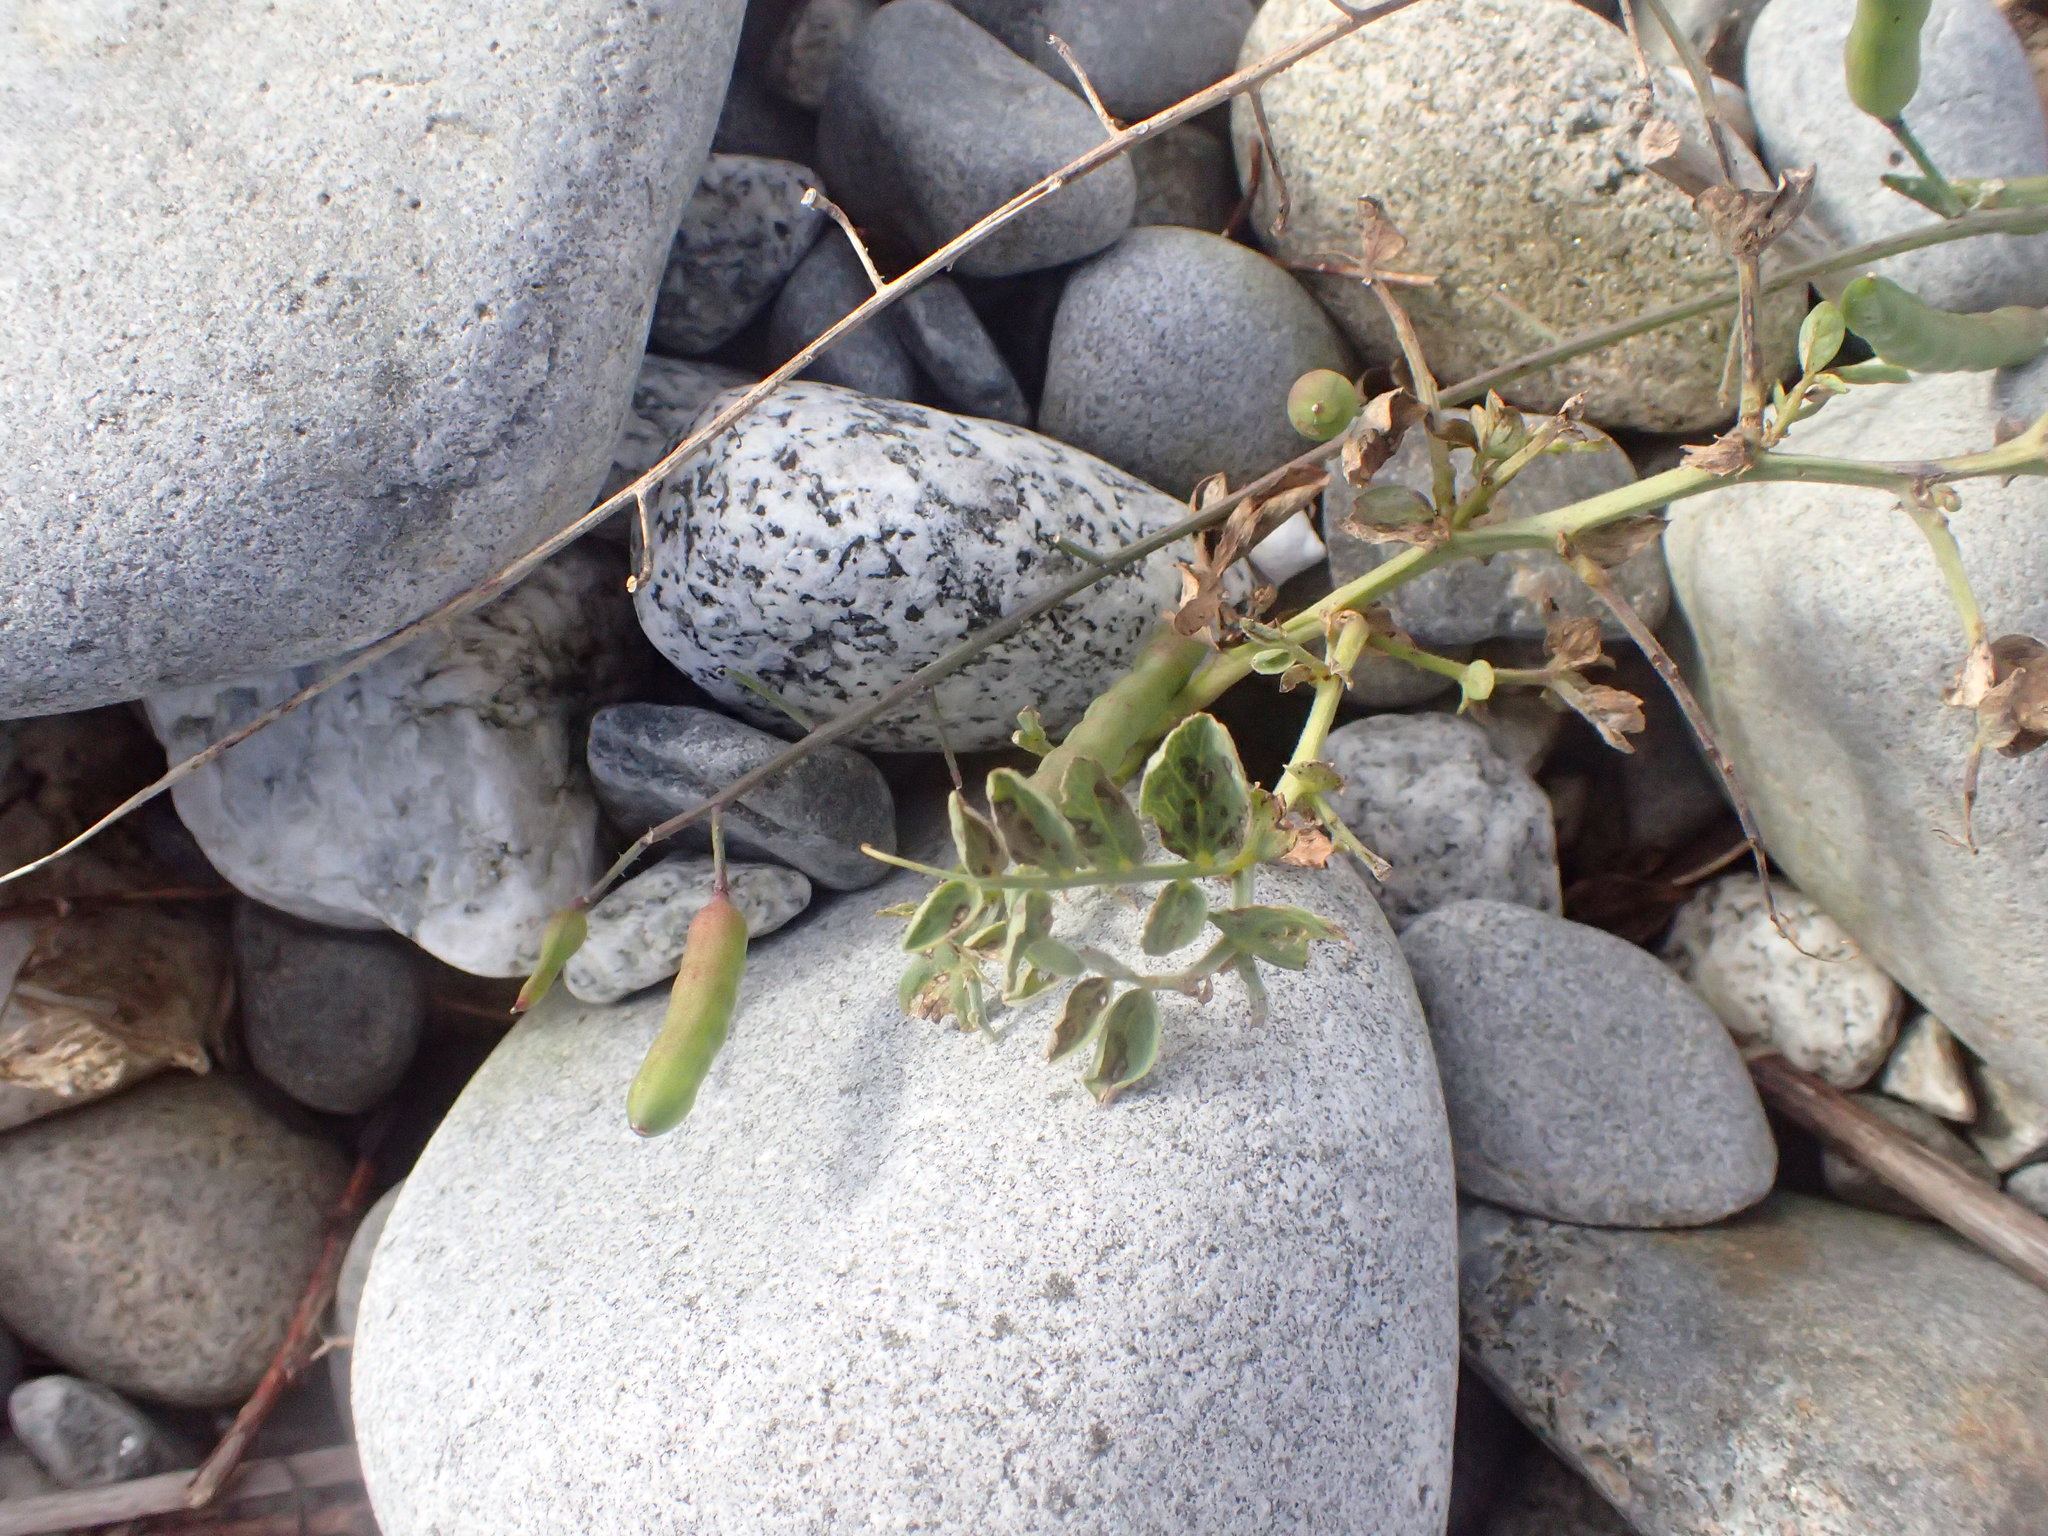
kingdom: Plantae
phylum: Tracheophyta
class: Magnoliopsida
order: Fabales
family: Fabaceae
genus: Lathyrus
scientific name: Lathyrus japonicus
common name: Sea pea
